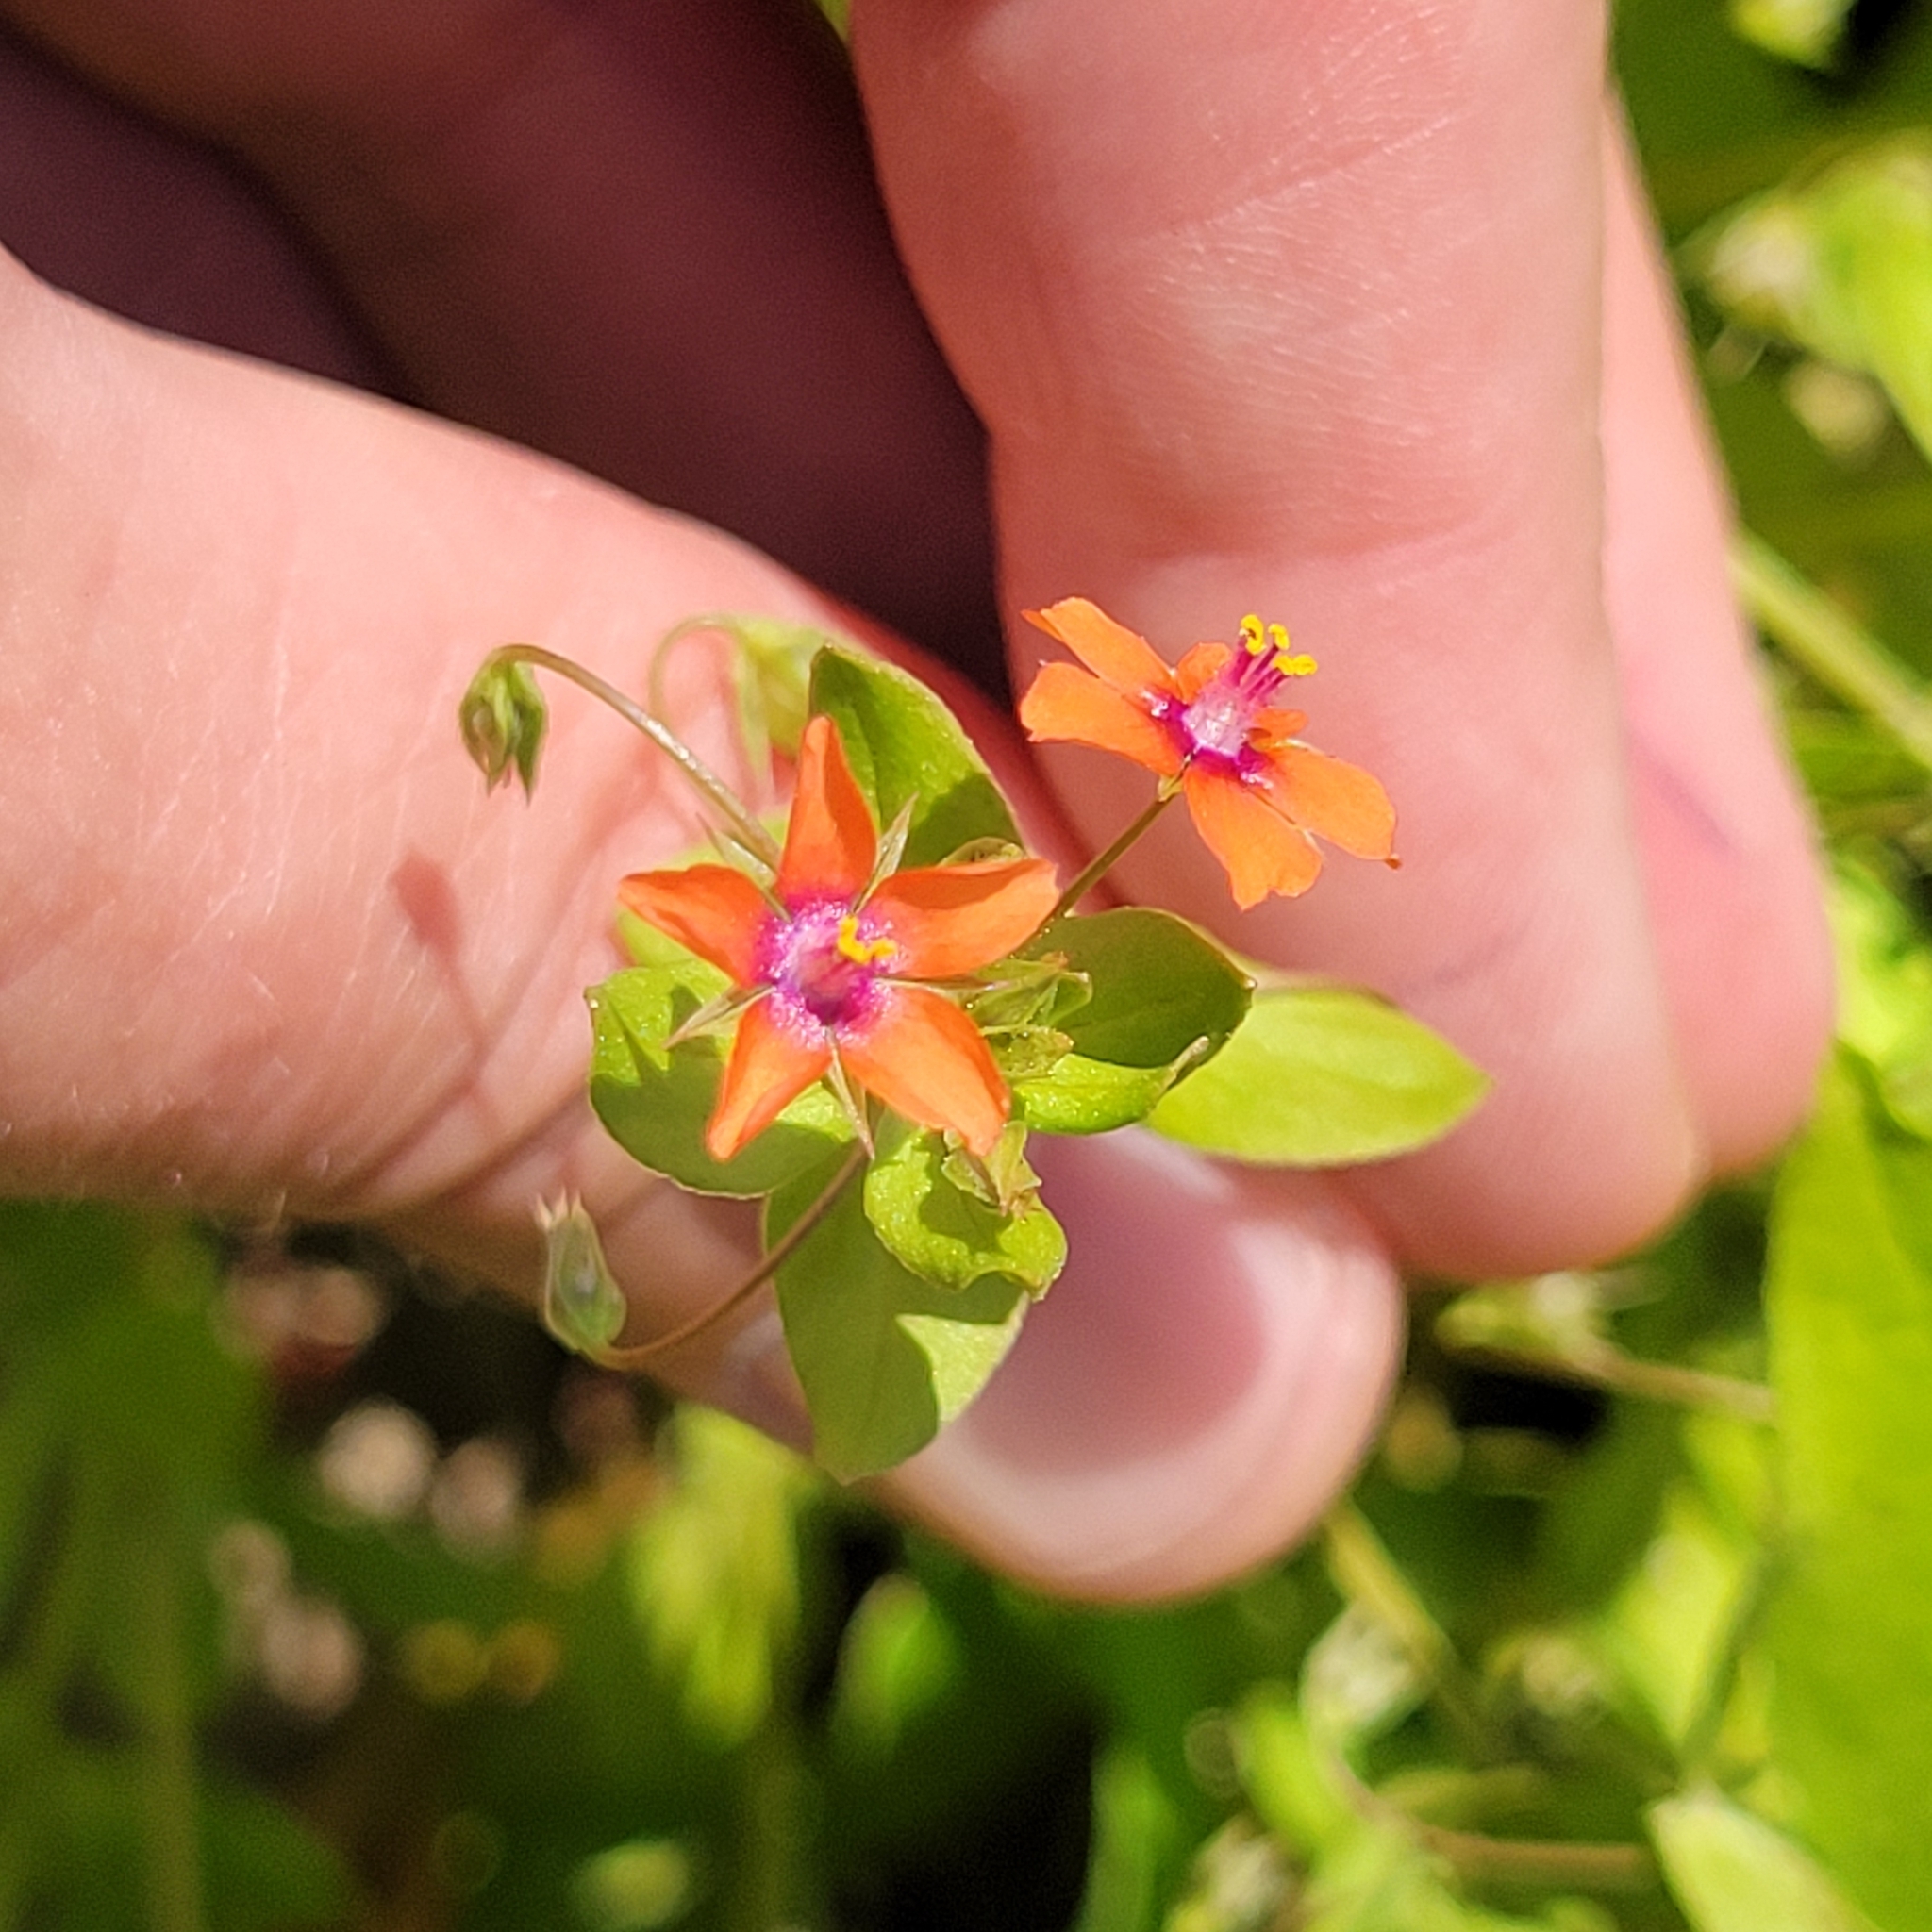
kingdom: Plantae
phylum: Tracheophyta
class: Magnoliopsida
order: Ericales
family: Primulaceae
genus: Lysimachia
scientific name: Lysimachia arvensis
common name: Scarlet pimpernel
